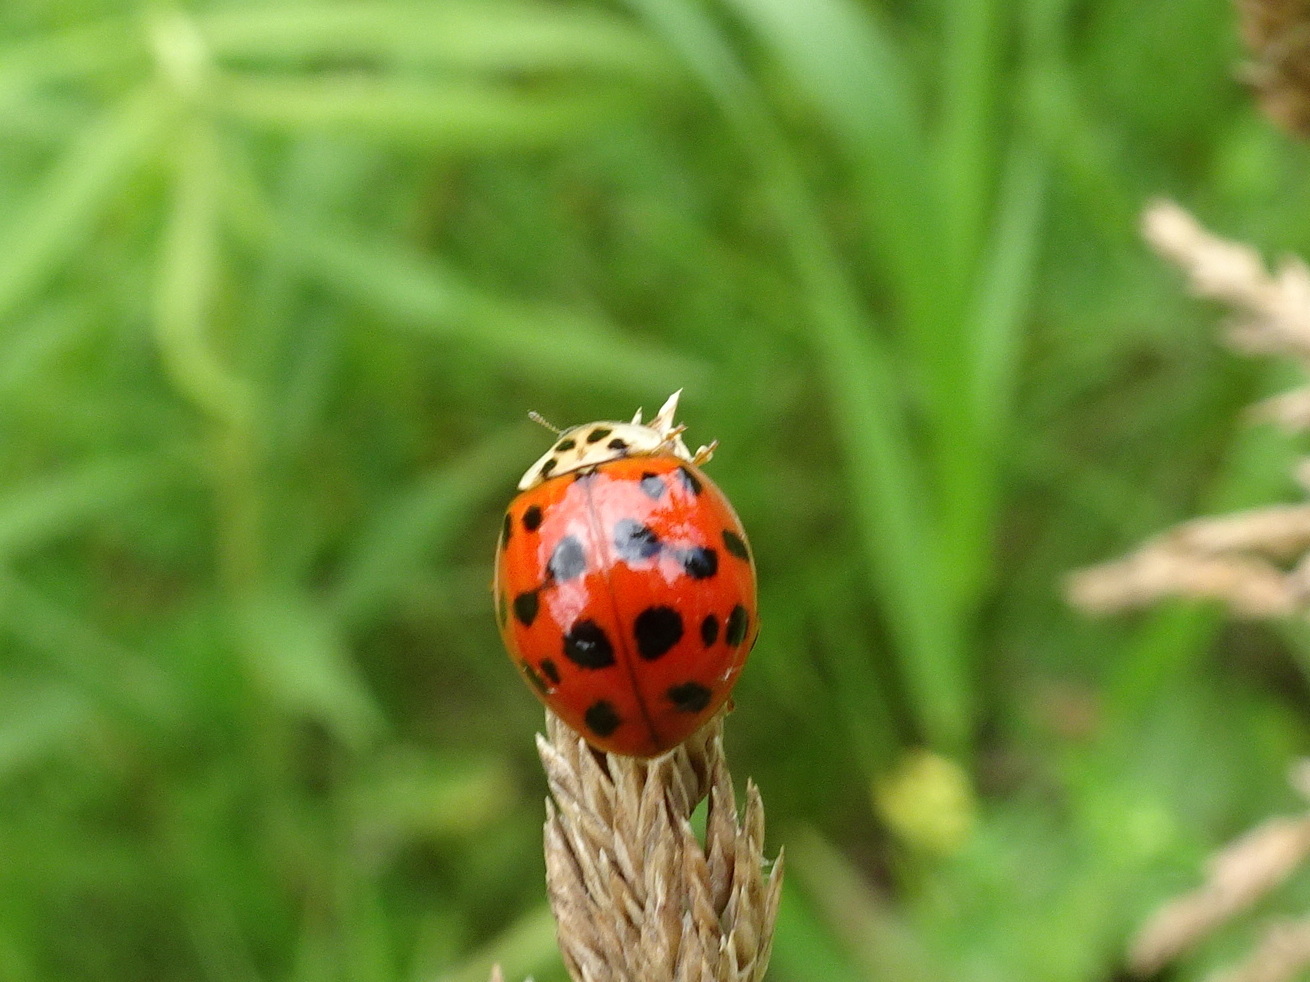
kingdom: Animalia
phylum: Arthropoda
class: Insecta
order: Coleoptera
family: Coccinellidae
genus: Harmonia
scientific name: Harmonia axyridis
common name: Harlequin ladybird
